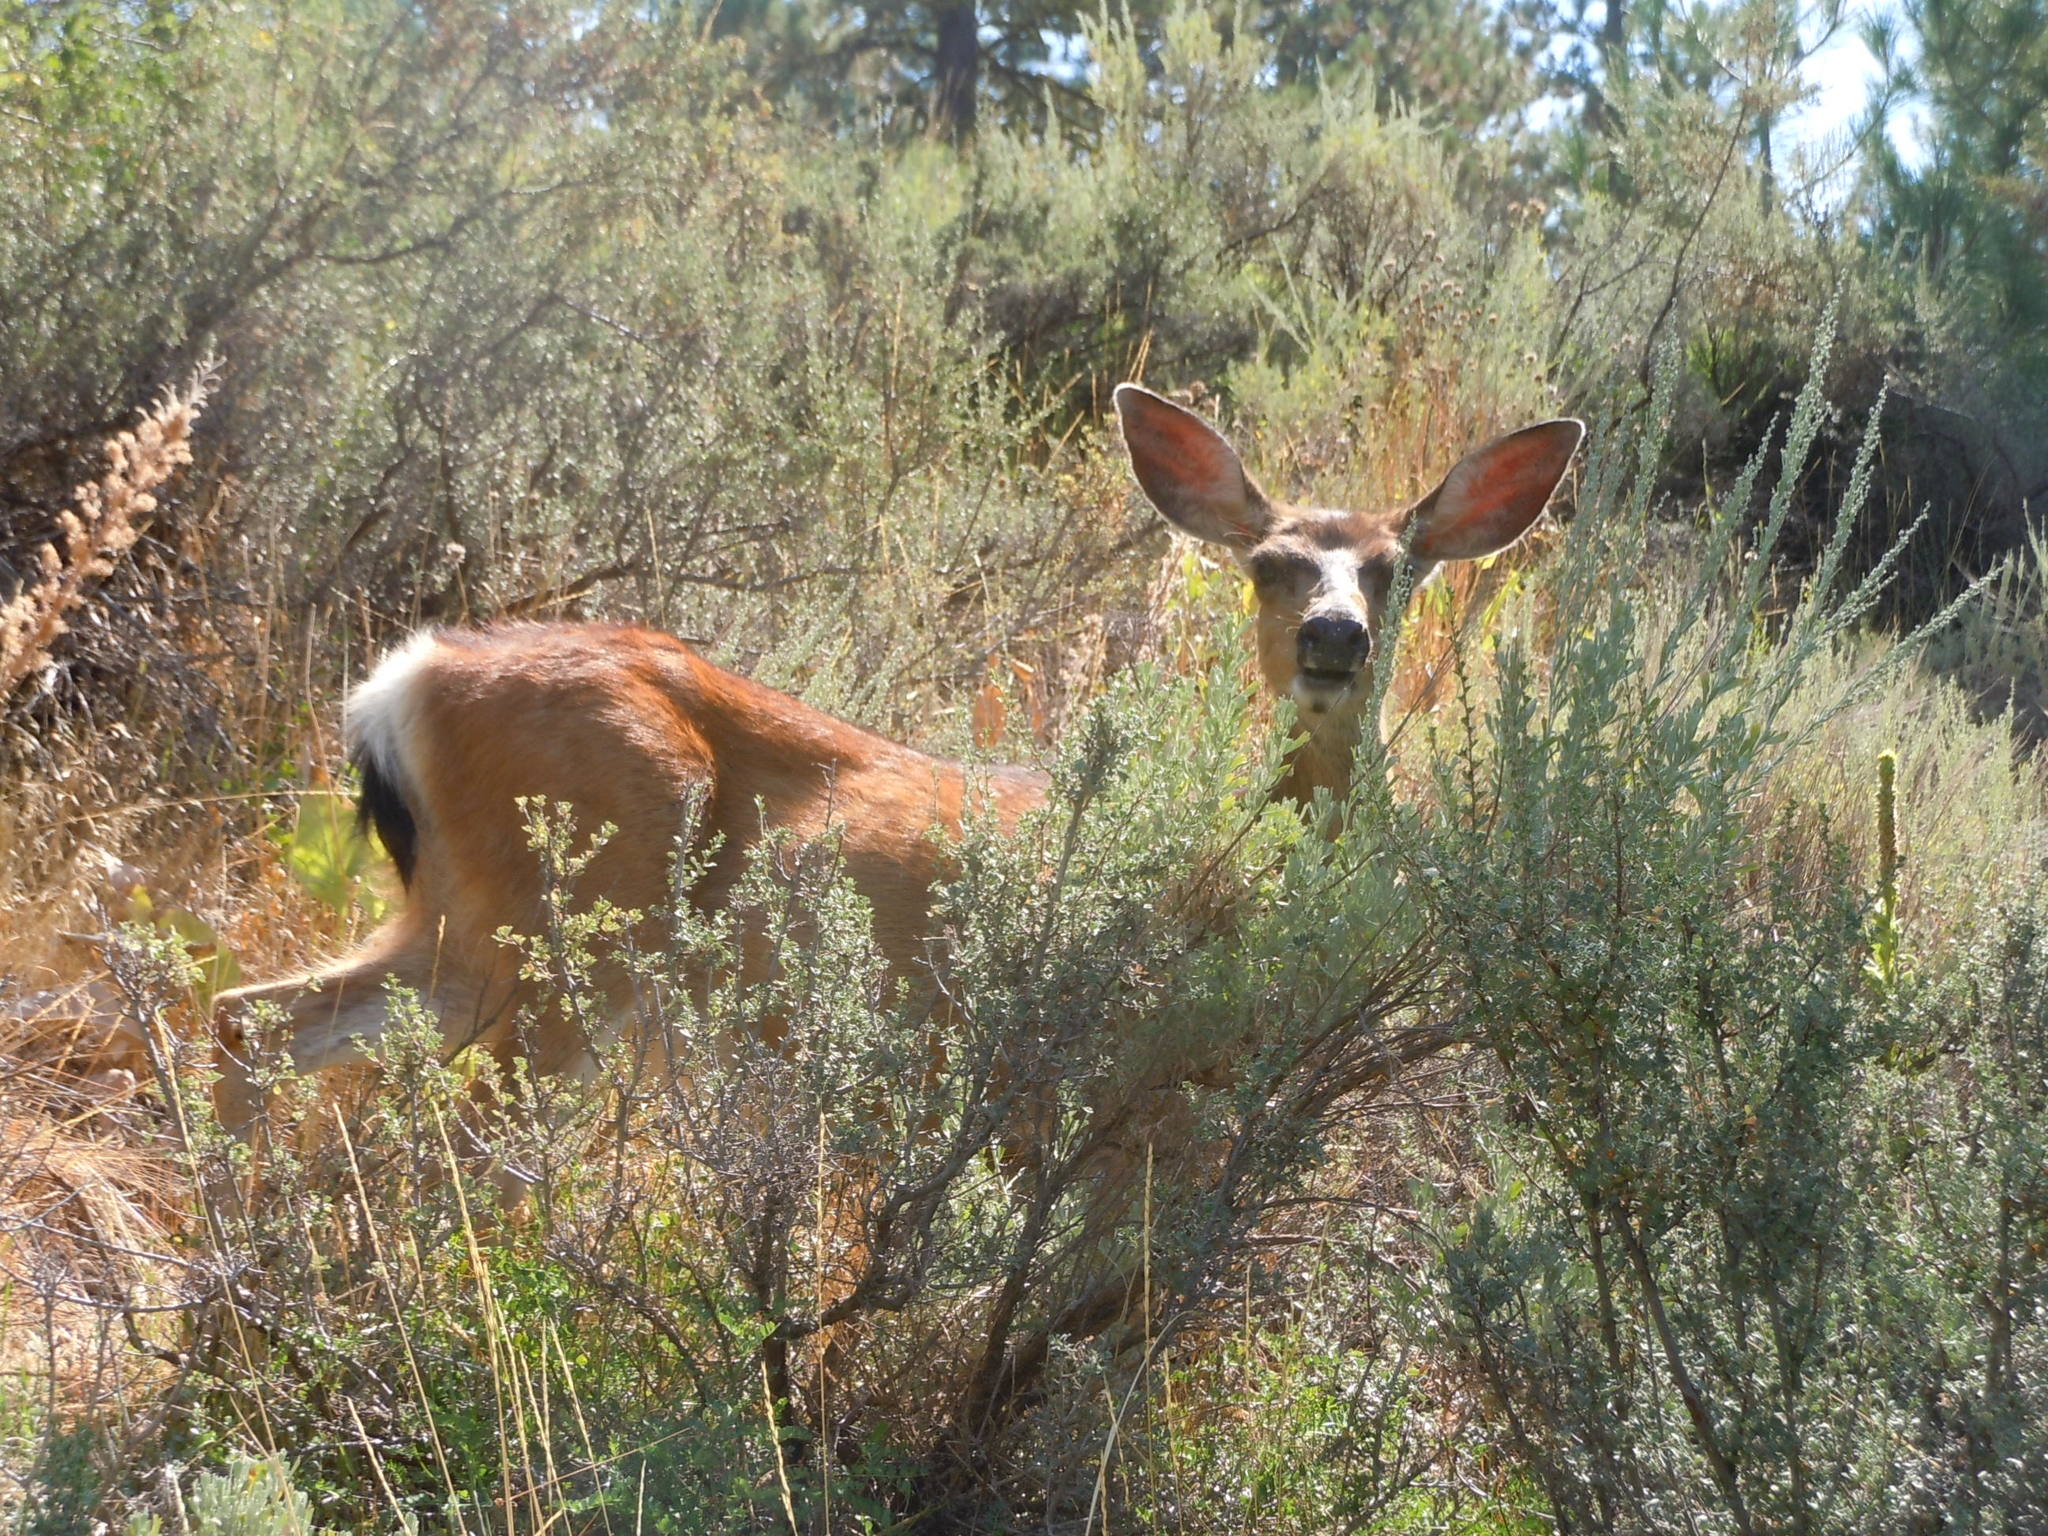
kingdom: Animalia
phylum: Chordata
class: Mammalia
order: Artiodactyla
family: Cervidae
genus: Odocoileus
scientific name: Odocoileus hemionus
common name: Mule deer
